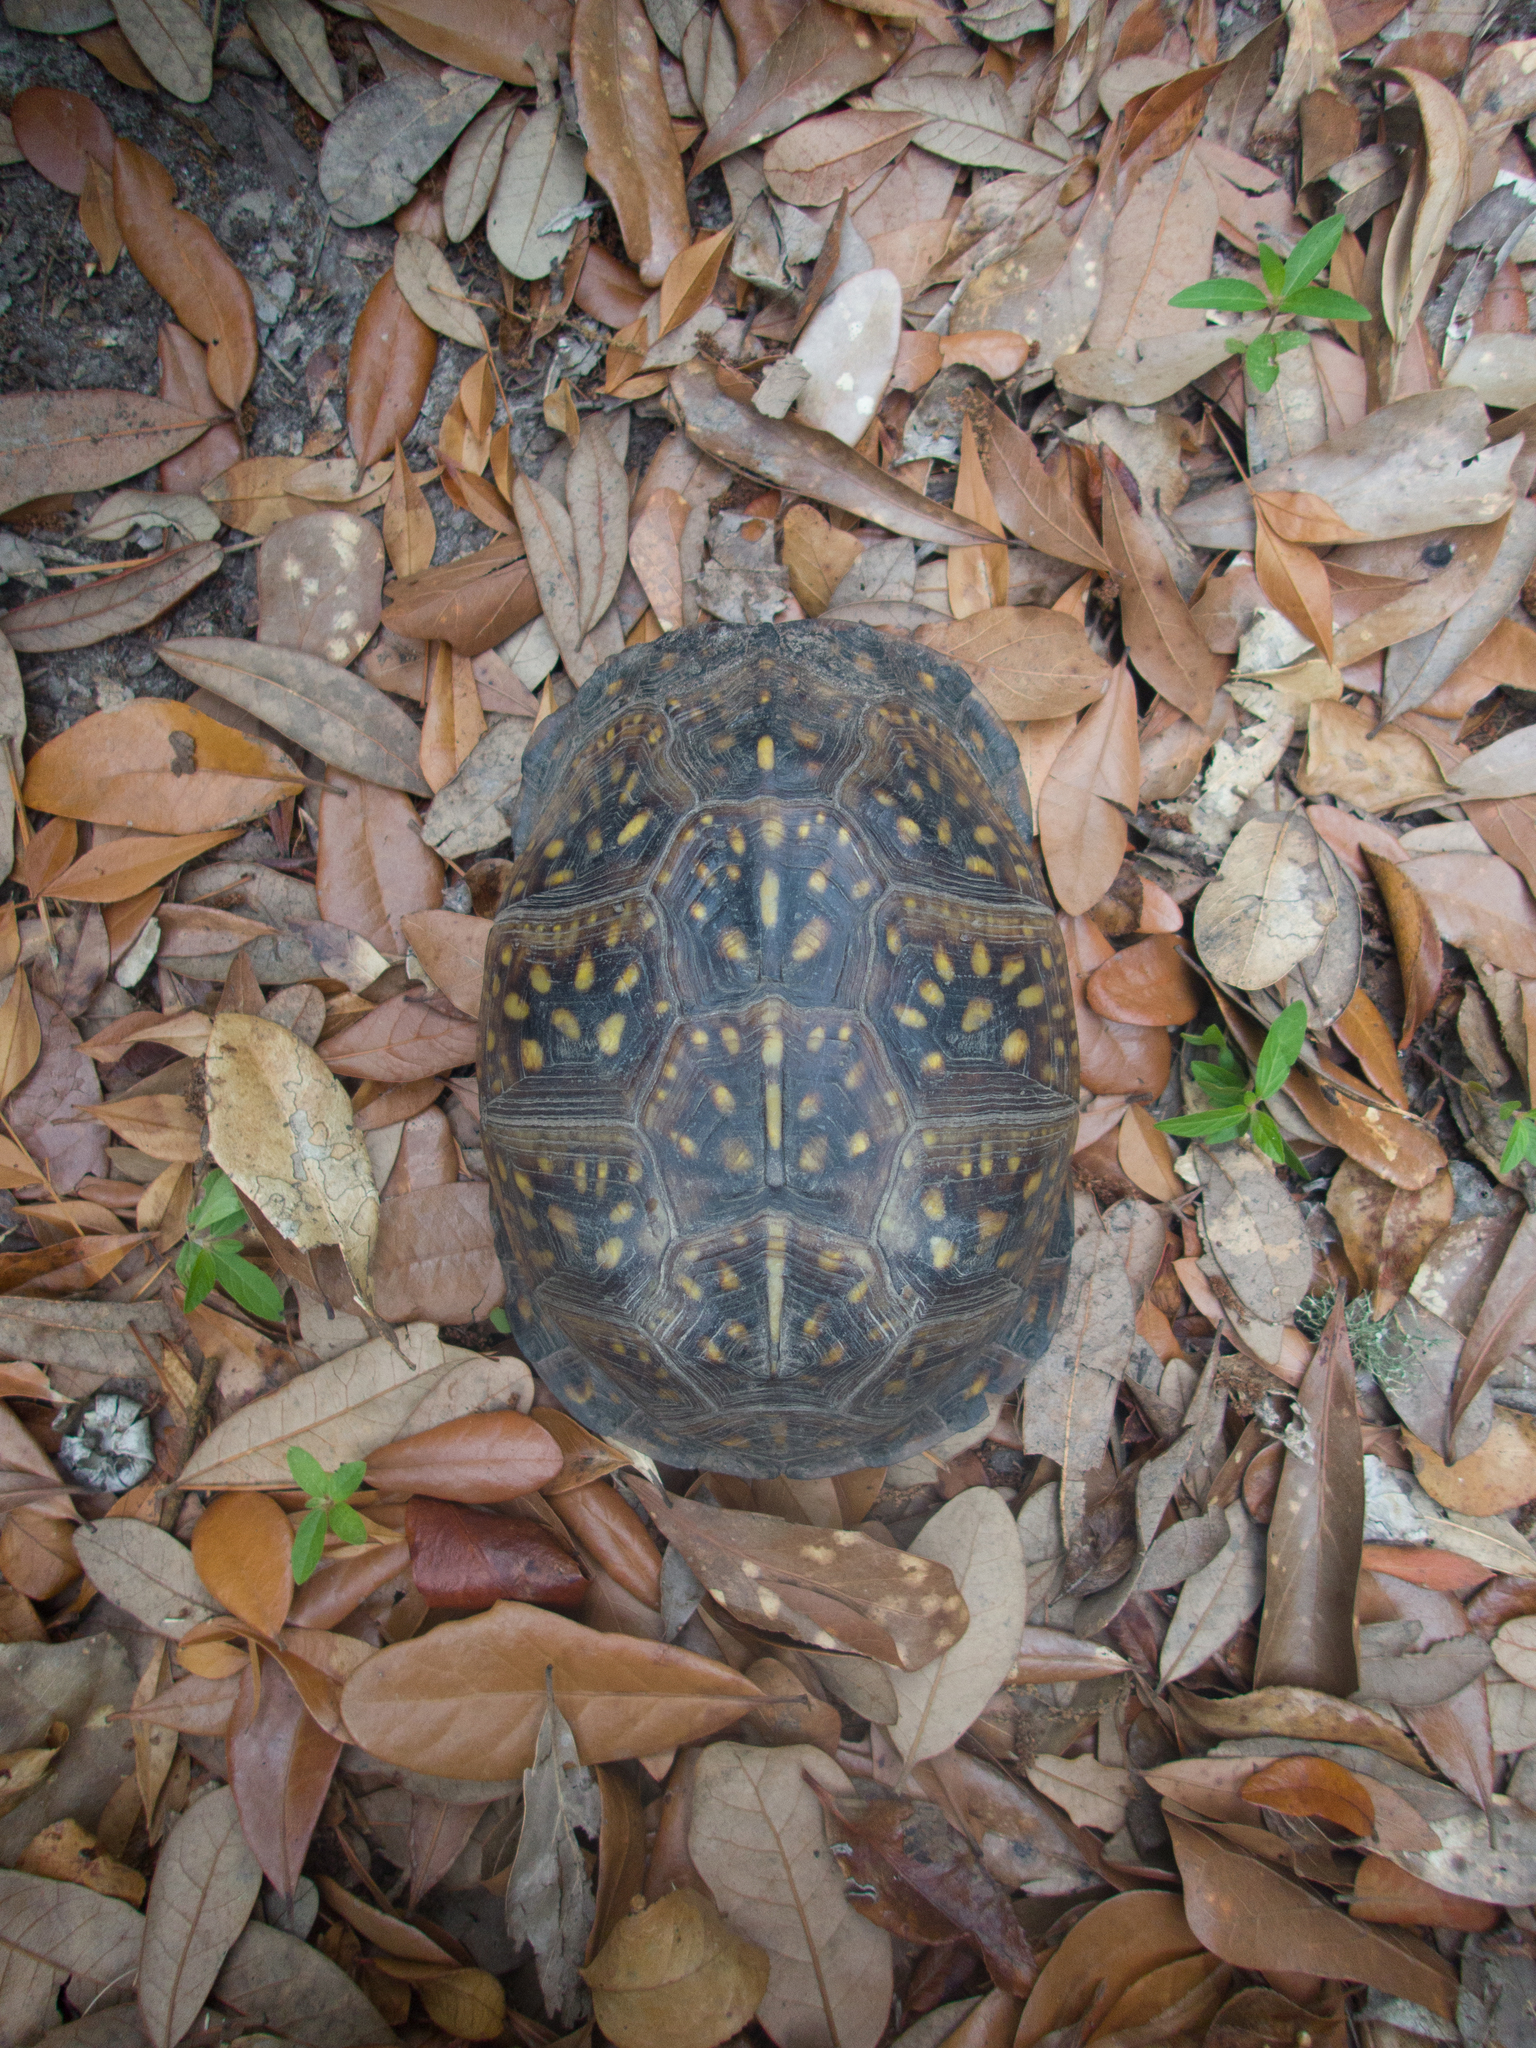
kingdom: Animalia
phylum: Chordata
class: Testudines
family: Emydidae
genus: Terrapene
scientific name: Terrapene carolina
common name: Common box turtle
